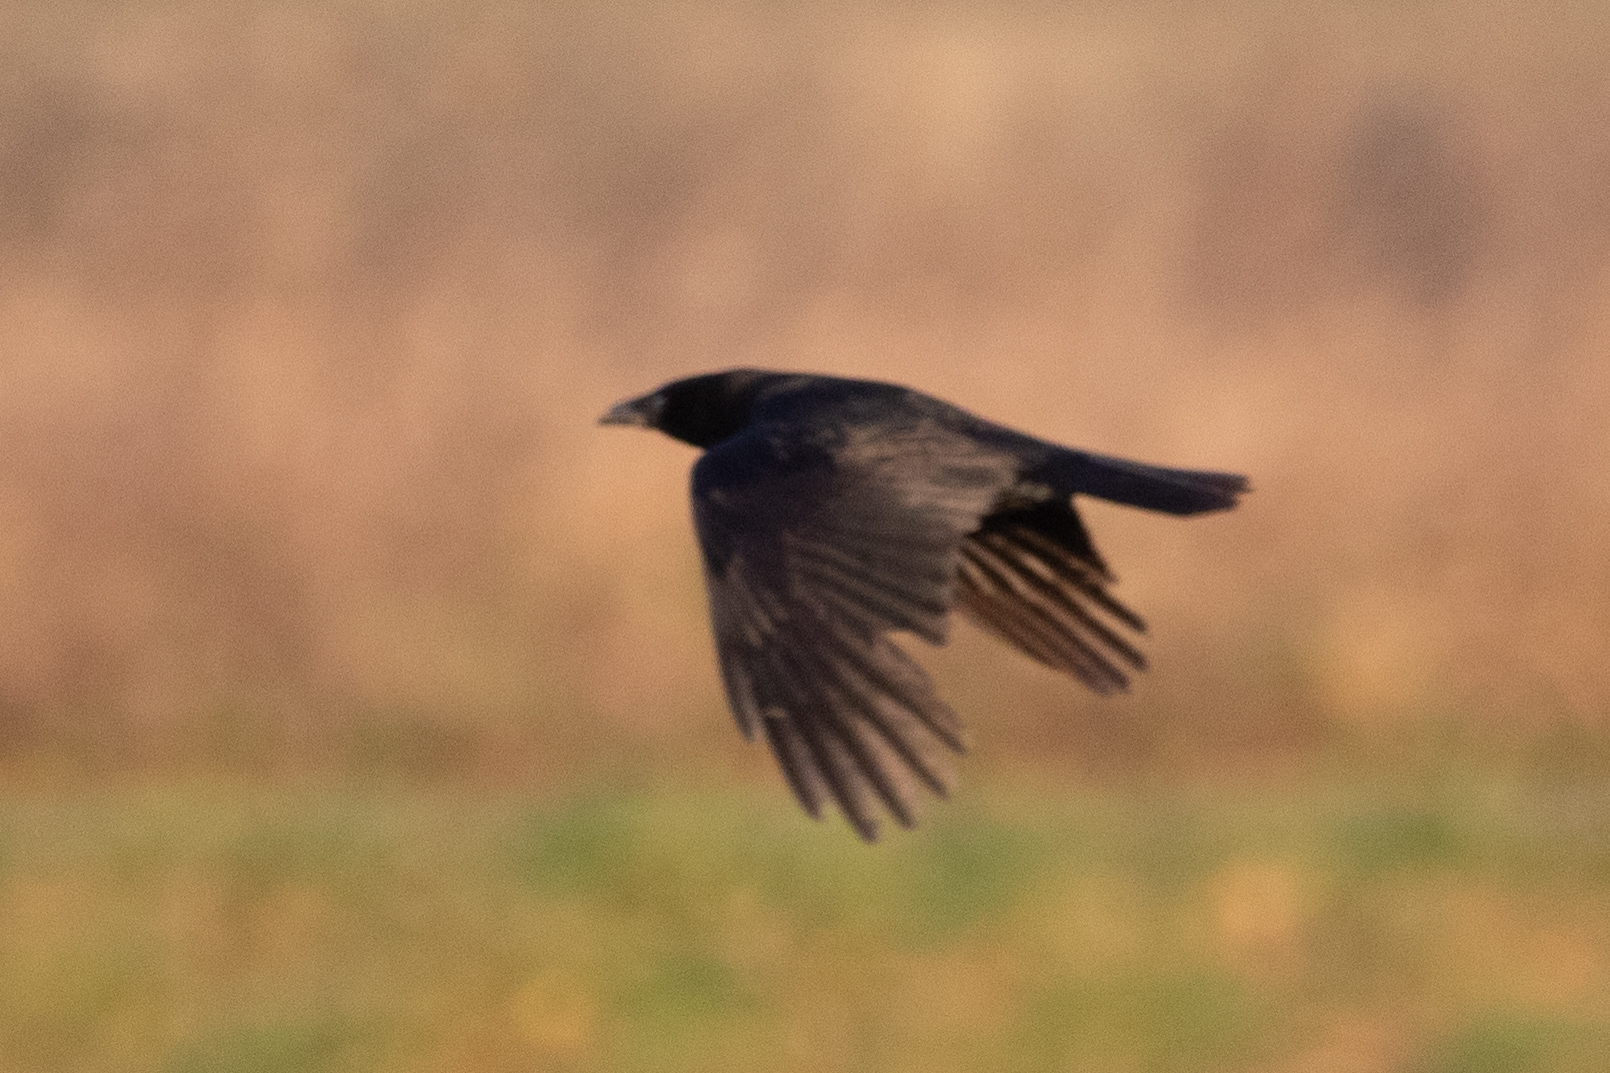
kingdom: Animalia
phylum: Chordata
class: Aves
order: Passeriformes
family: Corvidae
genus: Corvus
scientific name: Corvus corone
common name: Carrion crow
